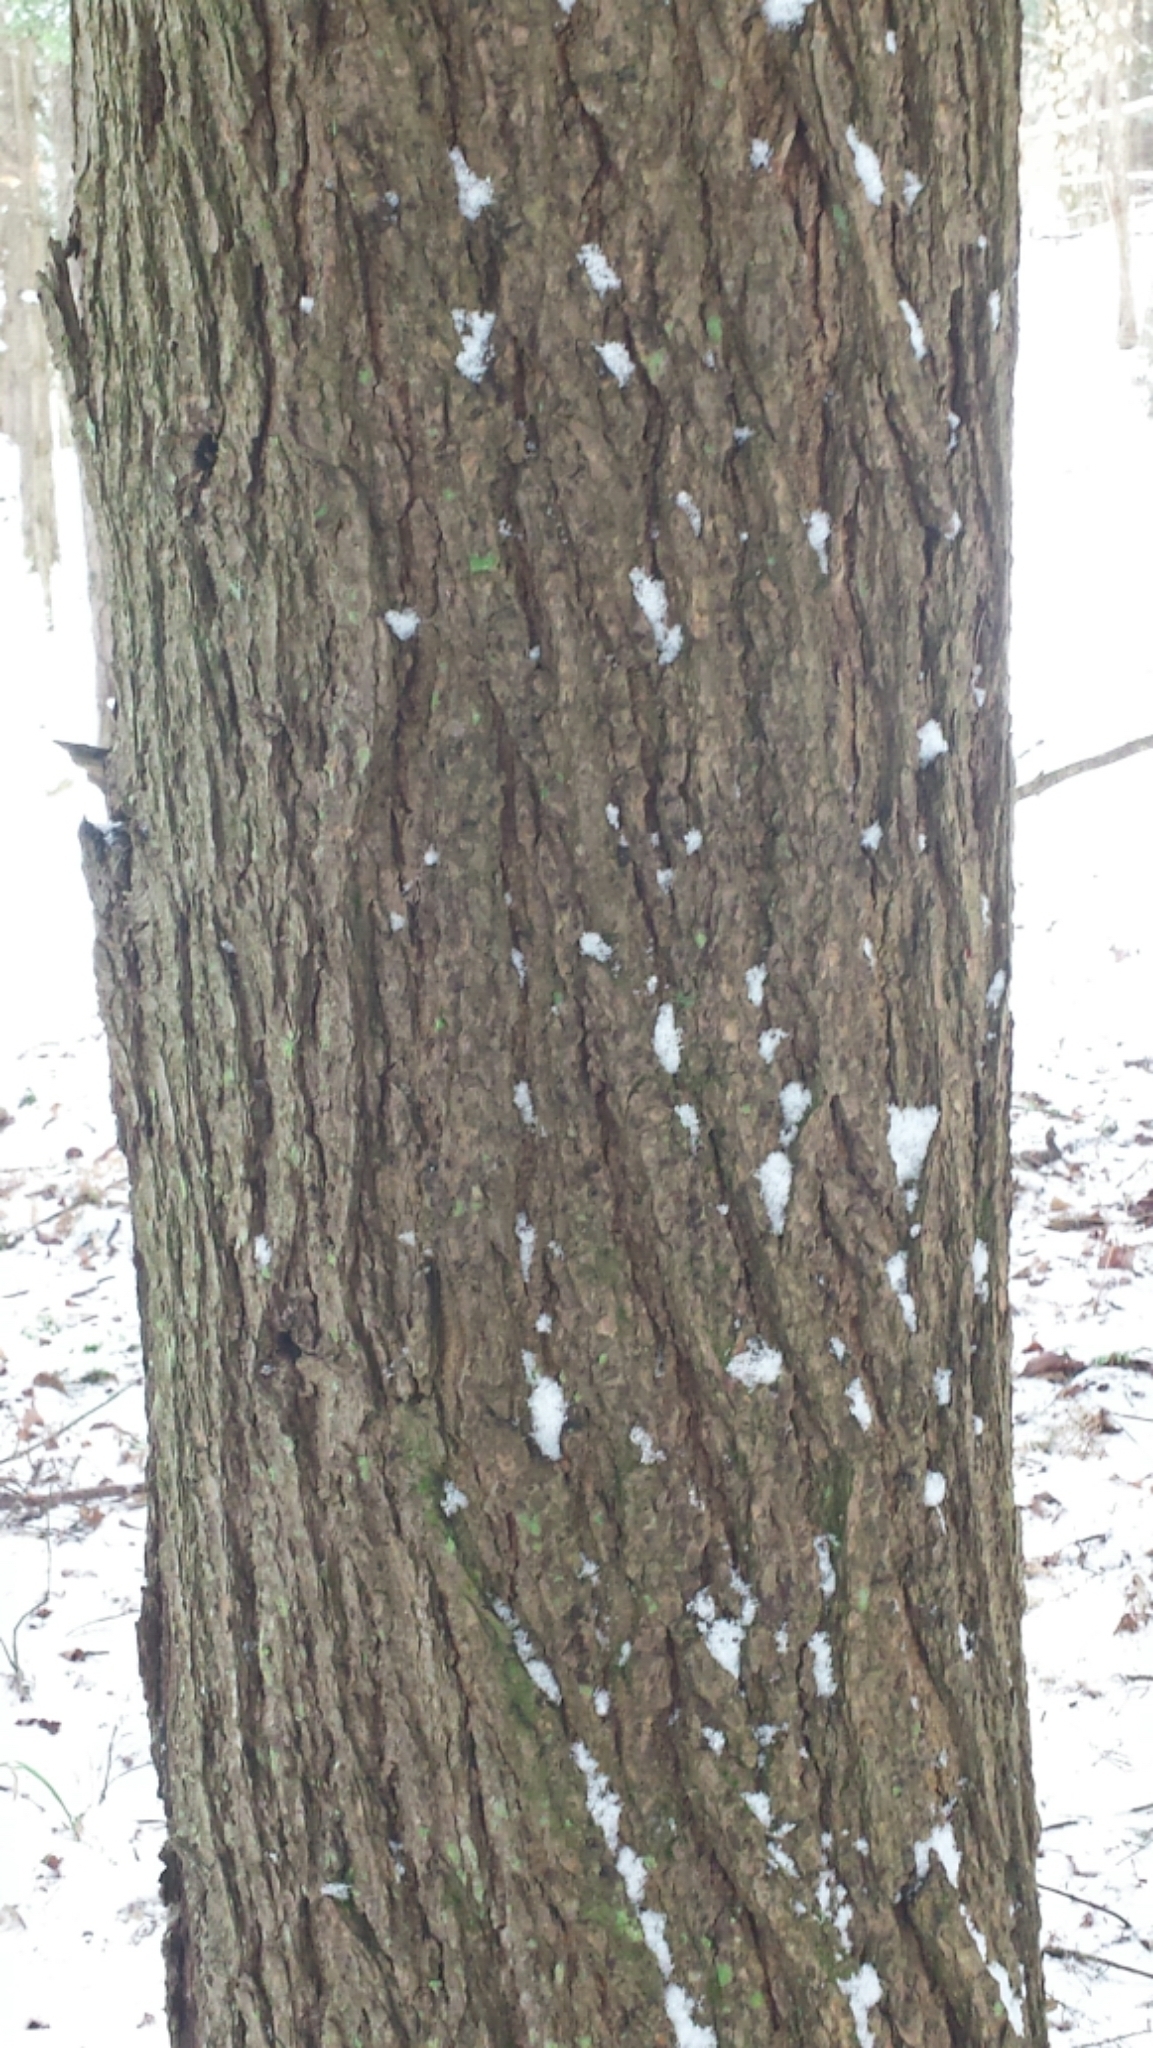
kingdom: Plantae
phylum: Tracheophyta
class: Pinopsida
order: Pinales
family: Pinaceae
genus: Tsuga
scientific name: Tsuga canadensis
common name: Eastern hemlock
